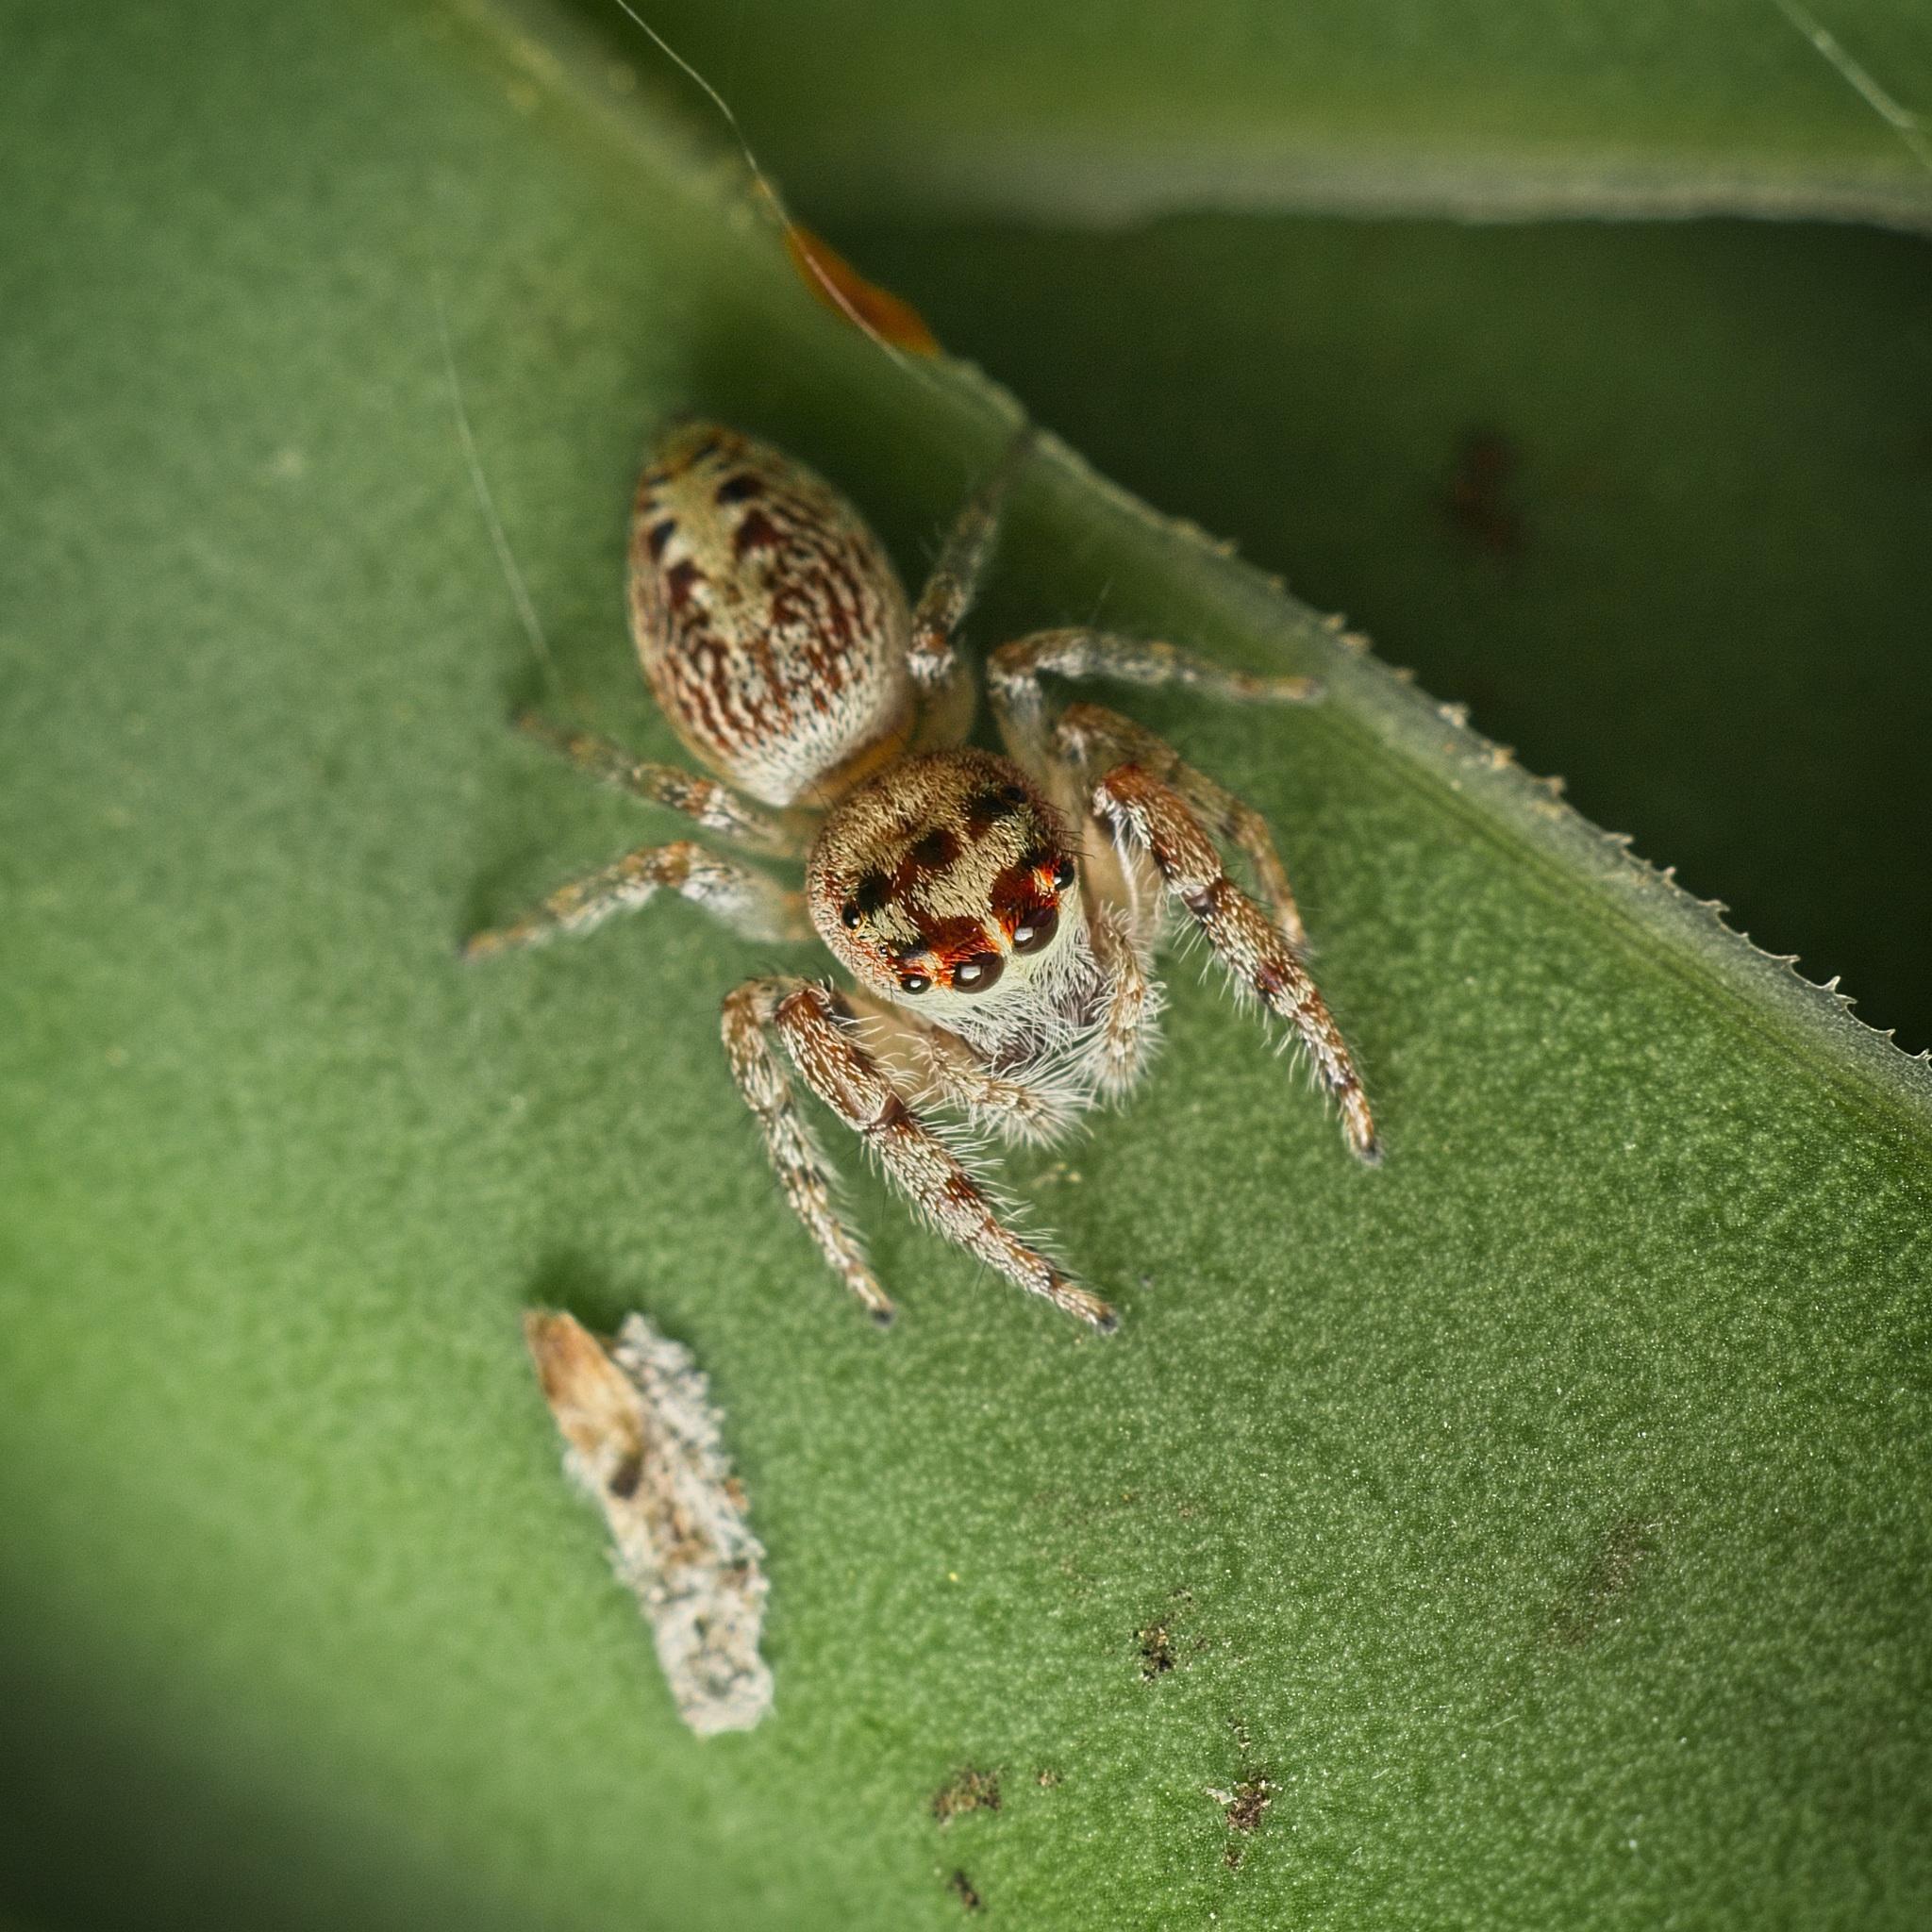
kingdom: Animalia
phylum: Arthropoda
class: Arachnida
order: Araneae
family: Salticidae
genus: Opisthoncus
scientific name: Opisthoncus polyphemus
